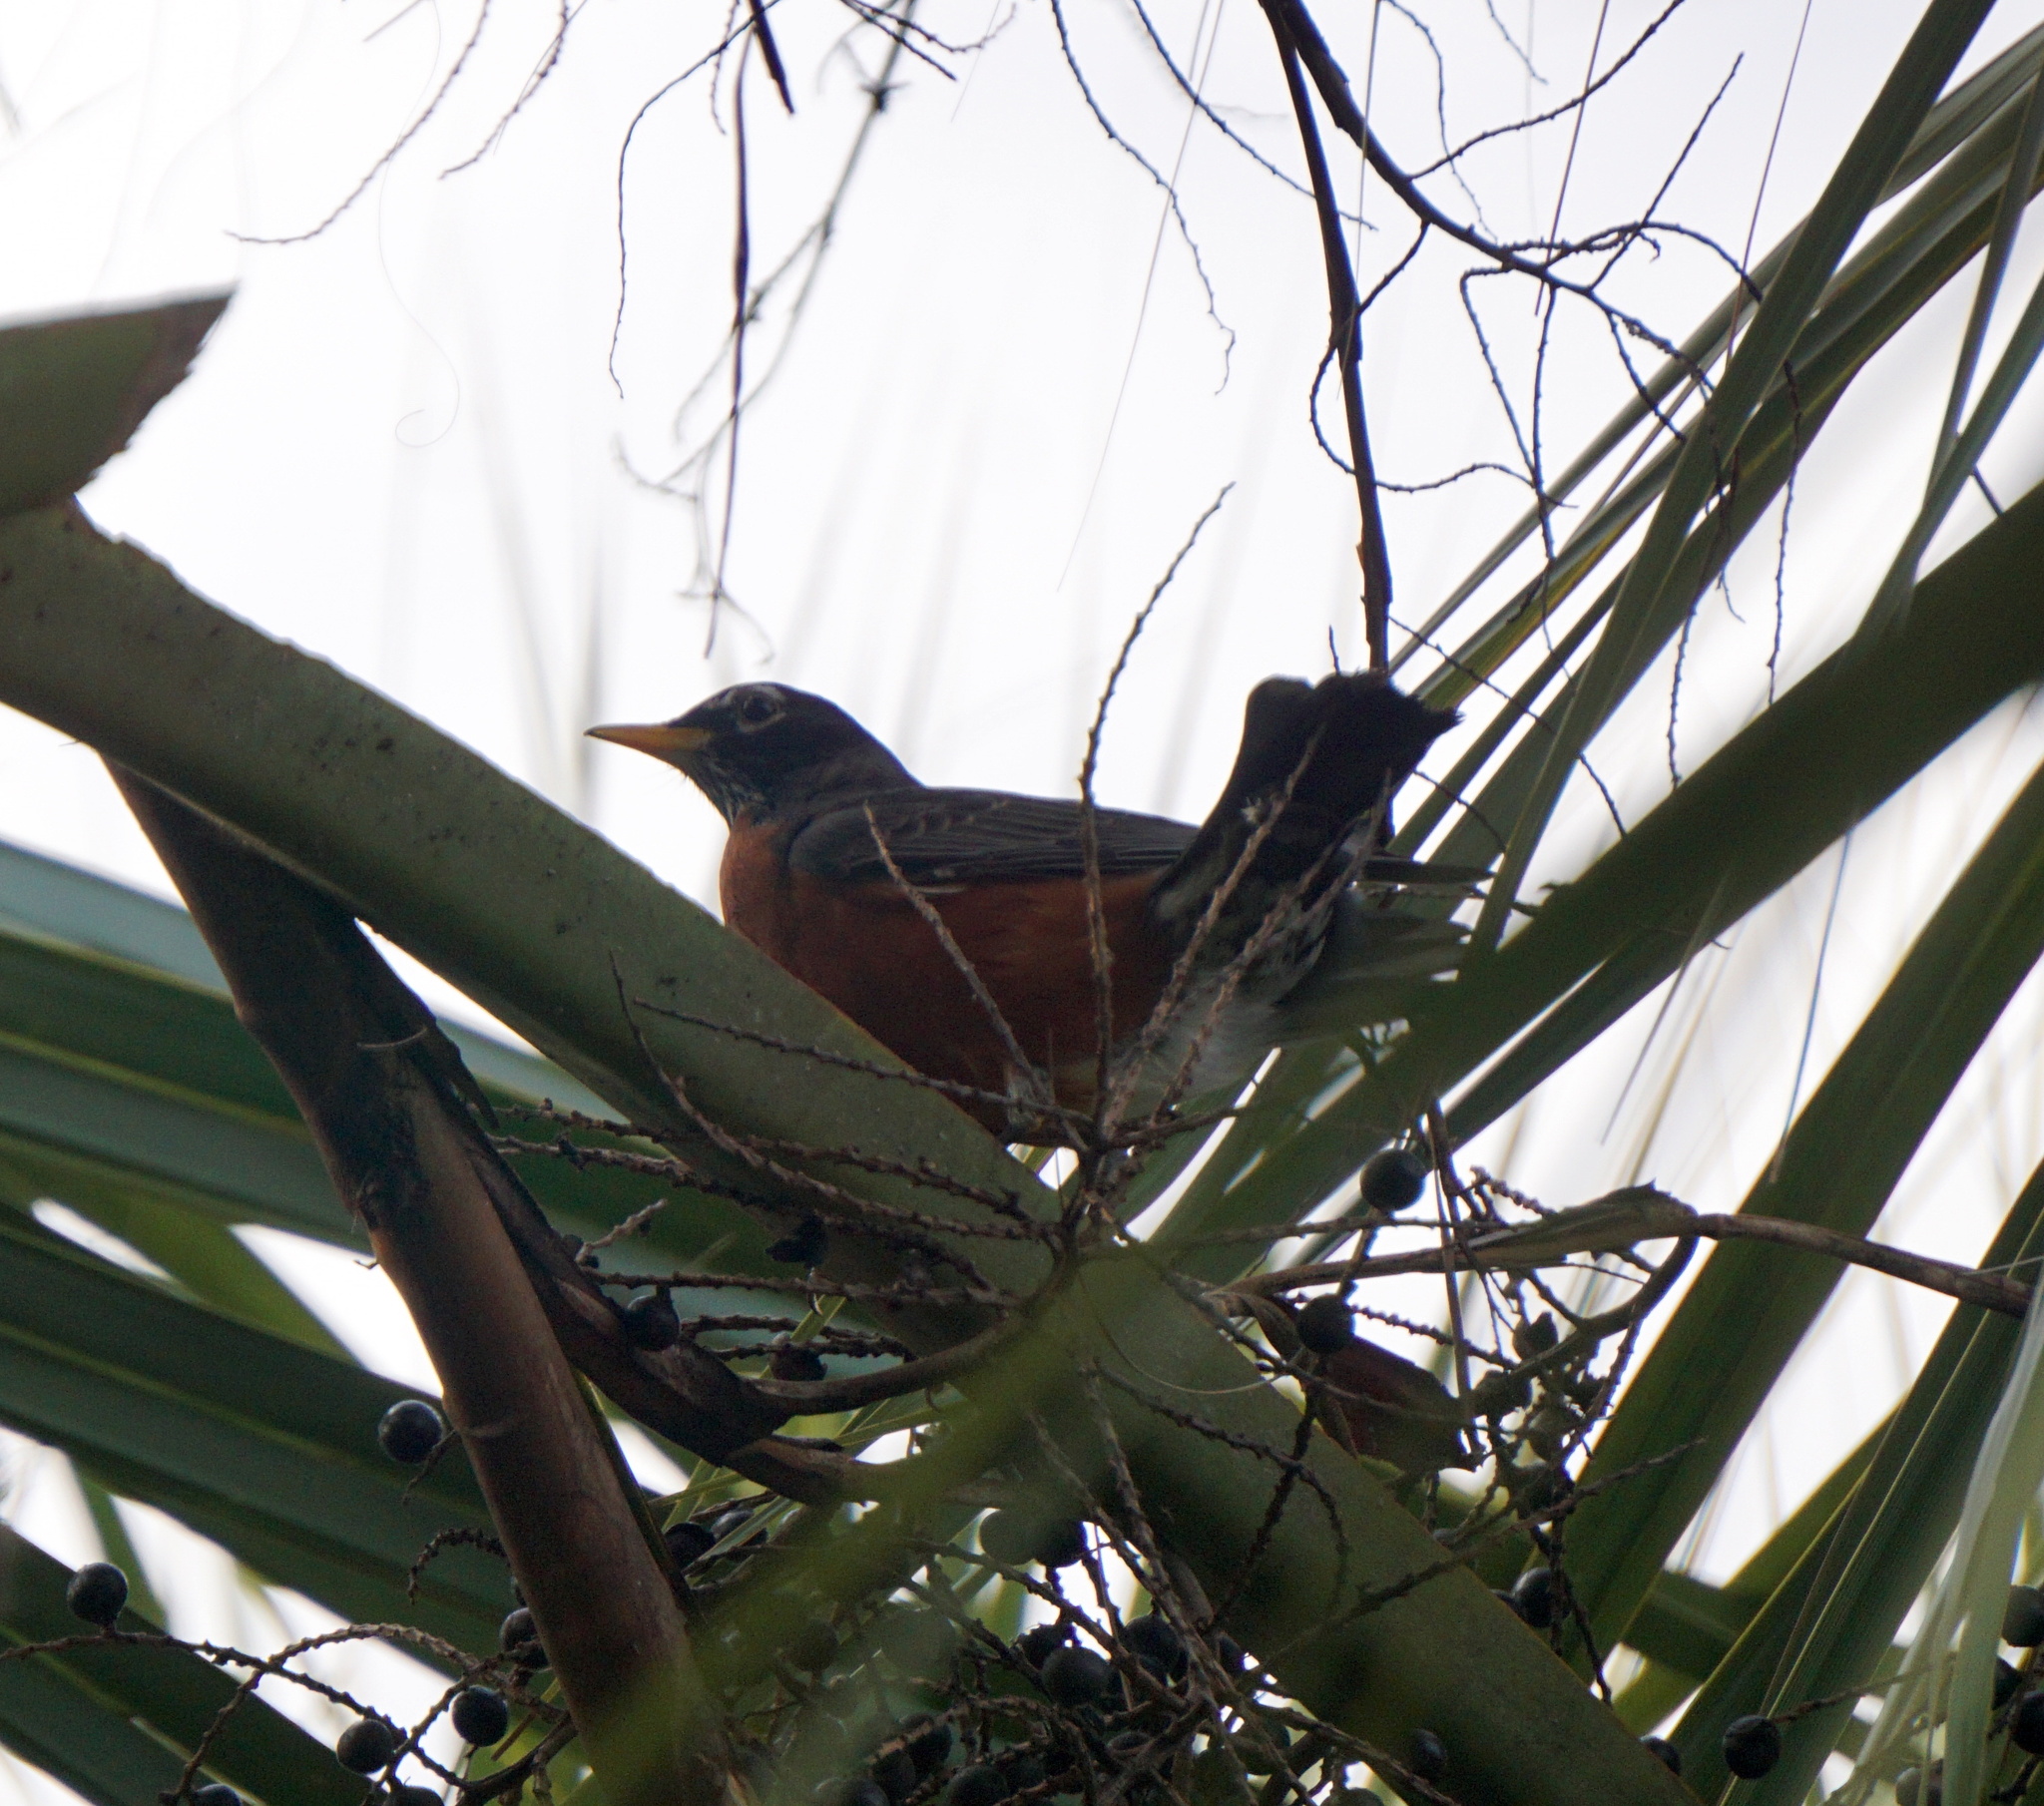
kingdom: Animalia
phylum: Chordata
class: Aves
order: Passeriformes
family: Turdidae
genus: Turdus
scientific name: Turdus migratorius
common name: American robin
